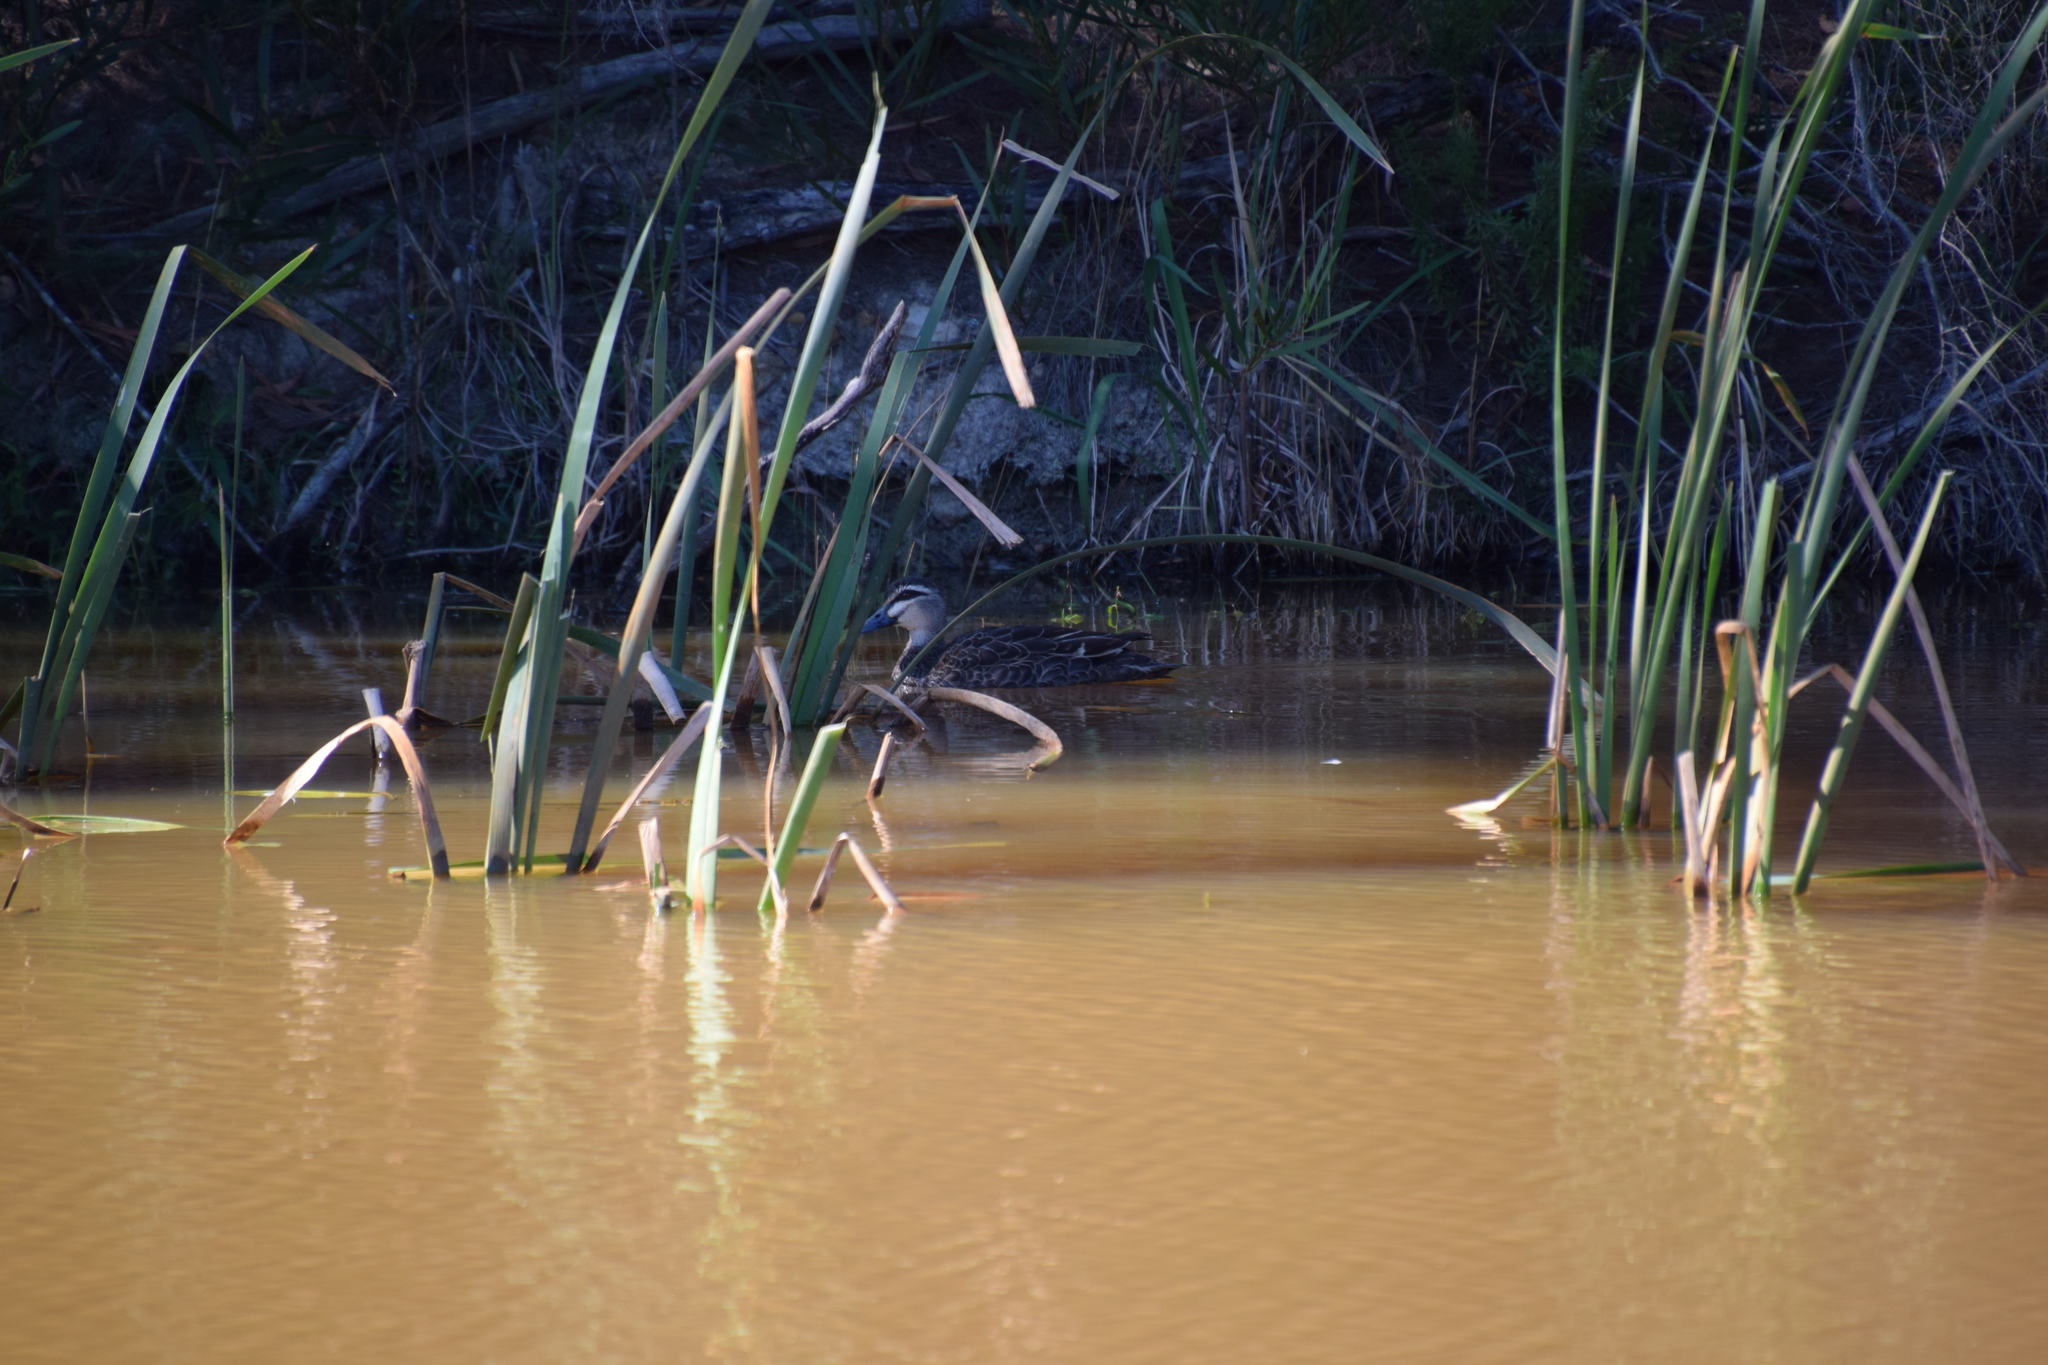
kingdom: Animalia
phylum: Chordata
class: Aves
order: Anseriformes
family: Anatidae
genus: Anas
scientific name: Anas superciliosa
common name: Pacific black duck
